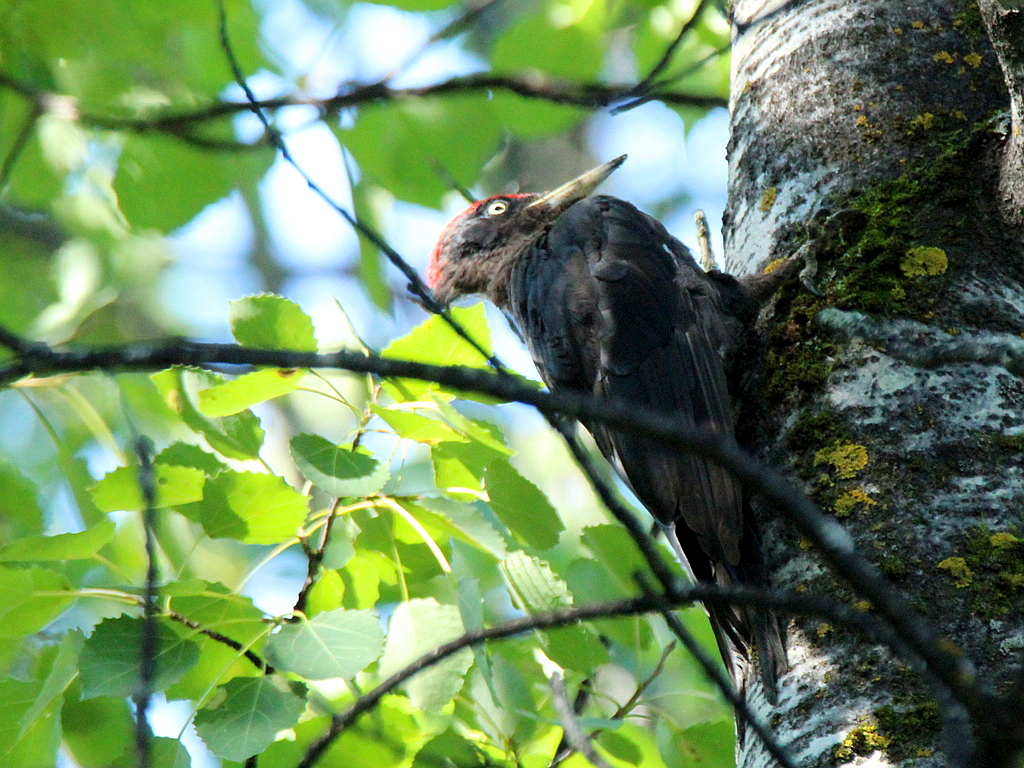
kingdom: Animalia
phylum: Chordata
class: Aves
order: Piciformes
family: Picidae
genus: Dryocopus
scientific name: Dryocopus martius
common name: Black woodpecker
